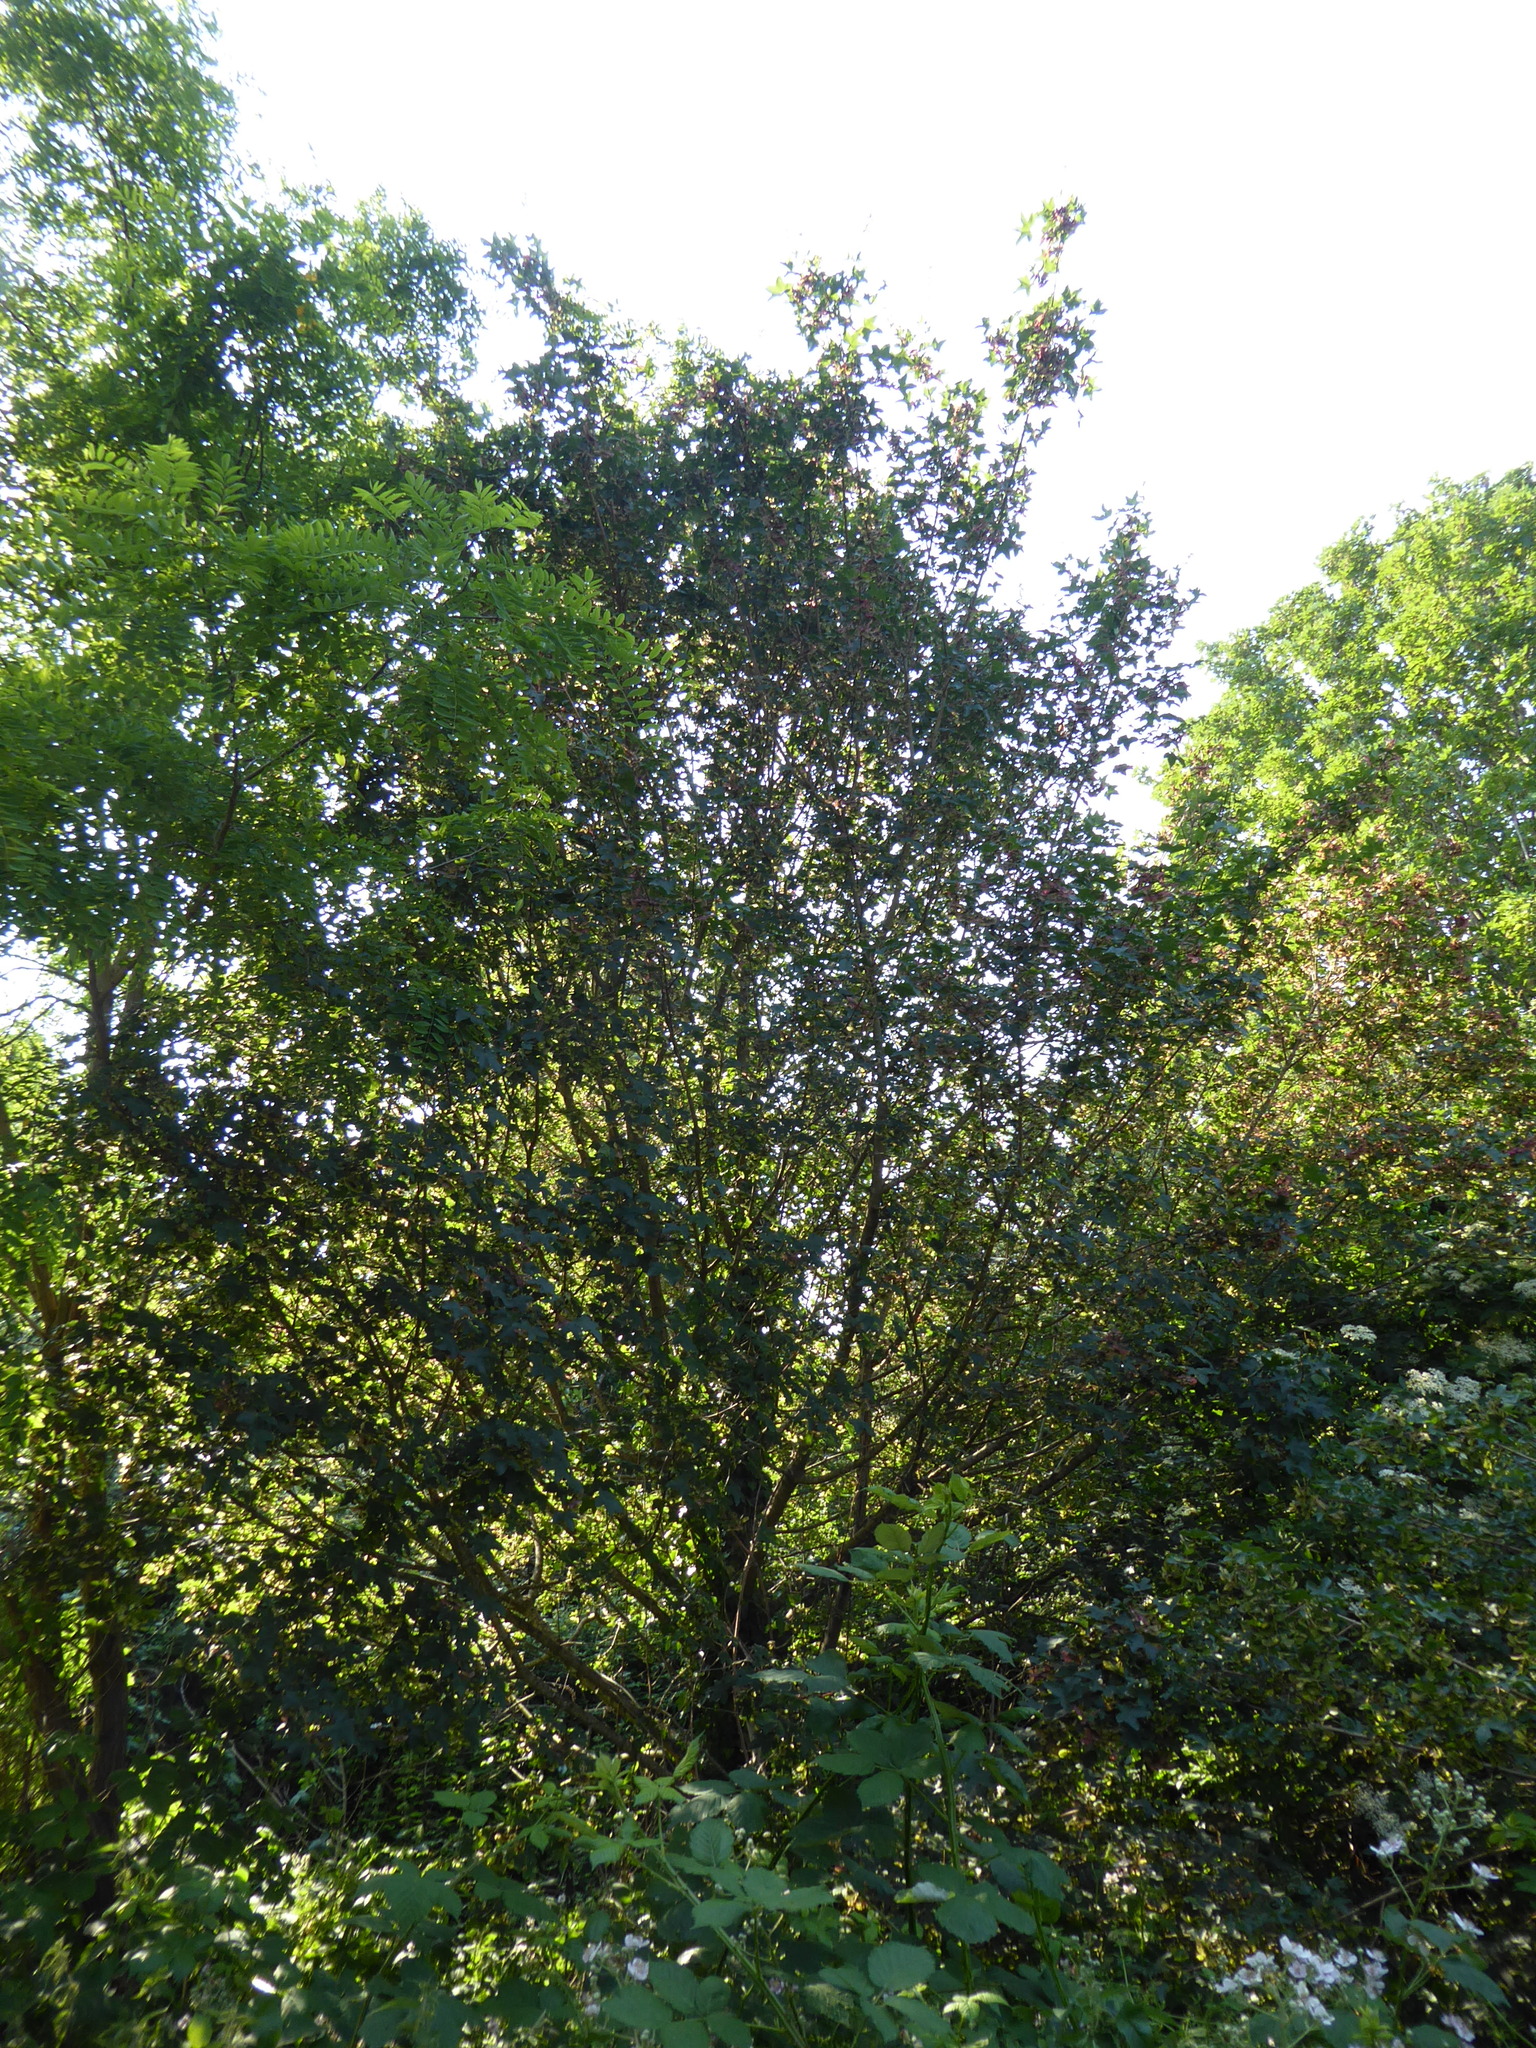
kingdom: Plantae
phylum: Tracheophyta
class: Magnoliopsida
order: Sapindales
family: Sapindaceae
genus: Acer
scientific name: Acer campestre
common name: Field maple
